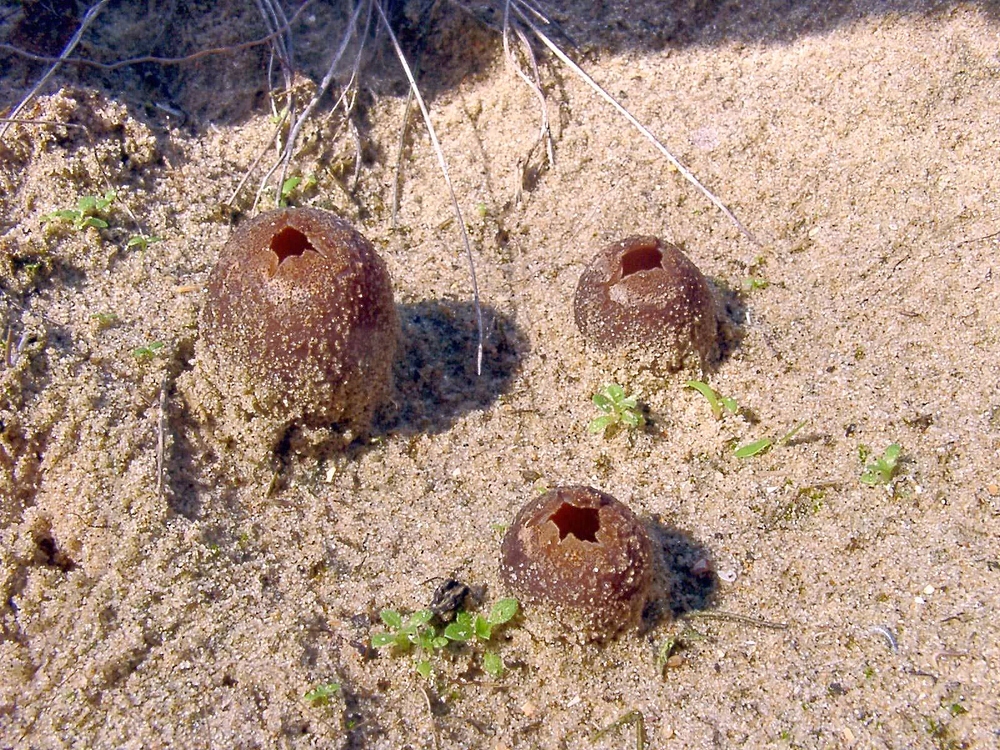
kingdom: Fungi
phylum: Ascomycota
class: Pezizomycetes
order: Pezizales
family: Pezizaceae
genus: Peziza
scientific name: Peziza ammophila
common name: Dune cup
